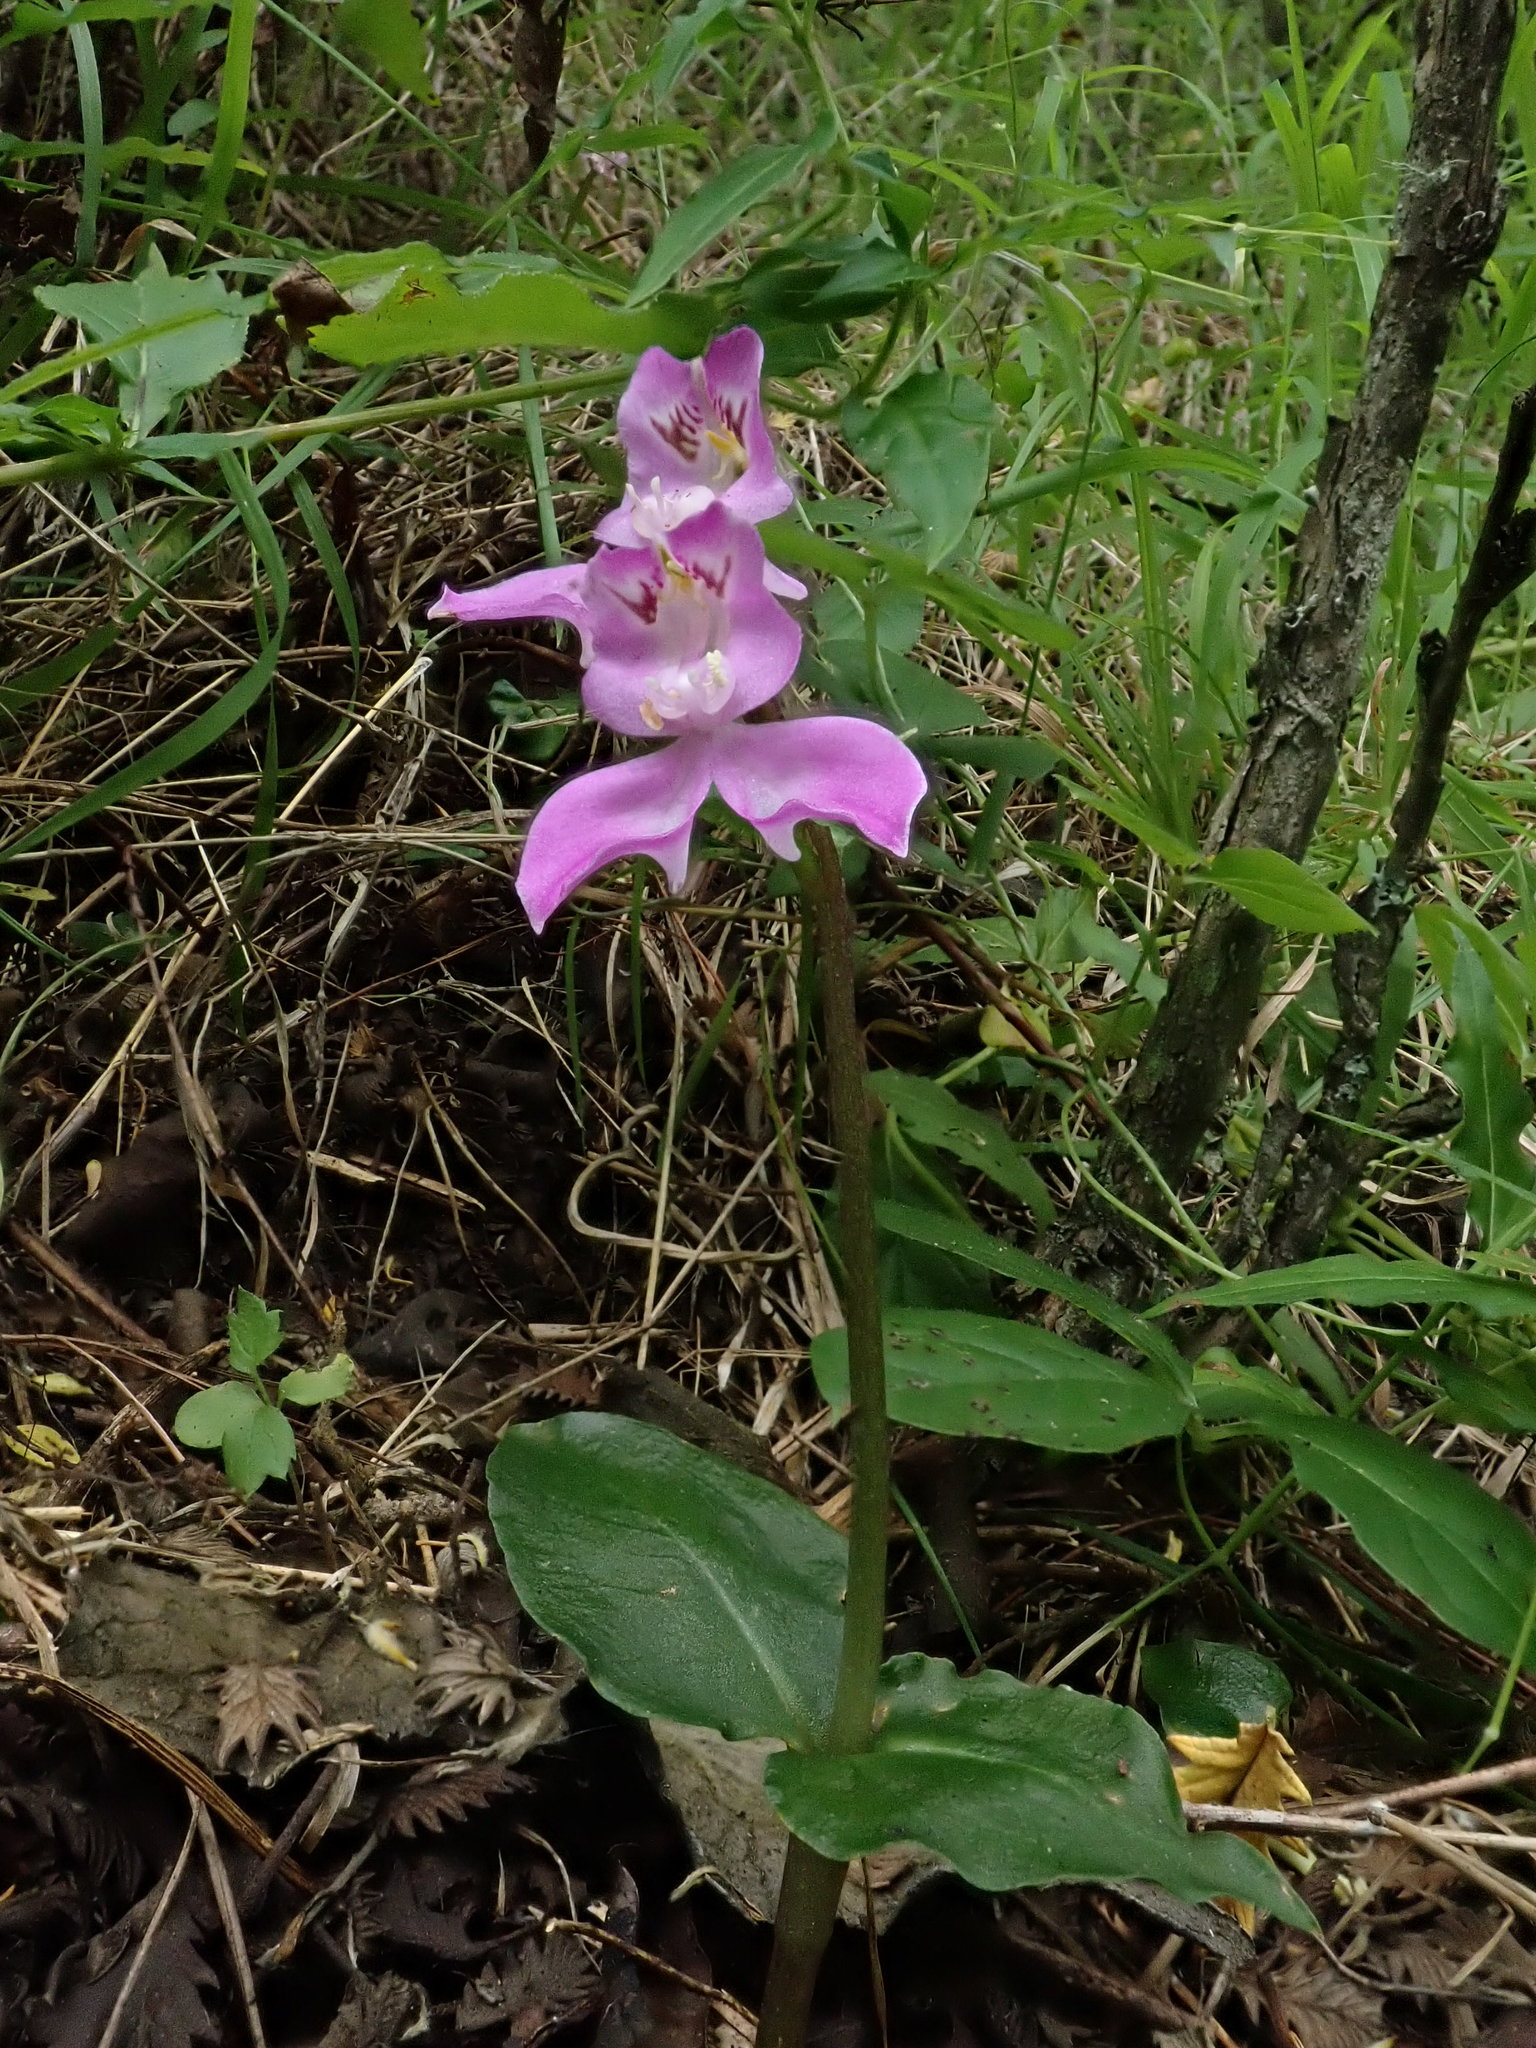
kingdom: Plantae
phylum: Tracheophyta
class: Liliopsida
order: Asparagales
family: Orchidaceae
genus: Disperis
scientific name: Disperis virginalis
